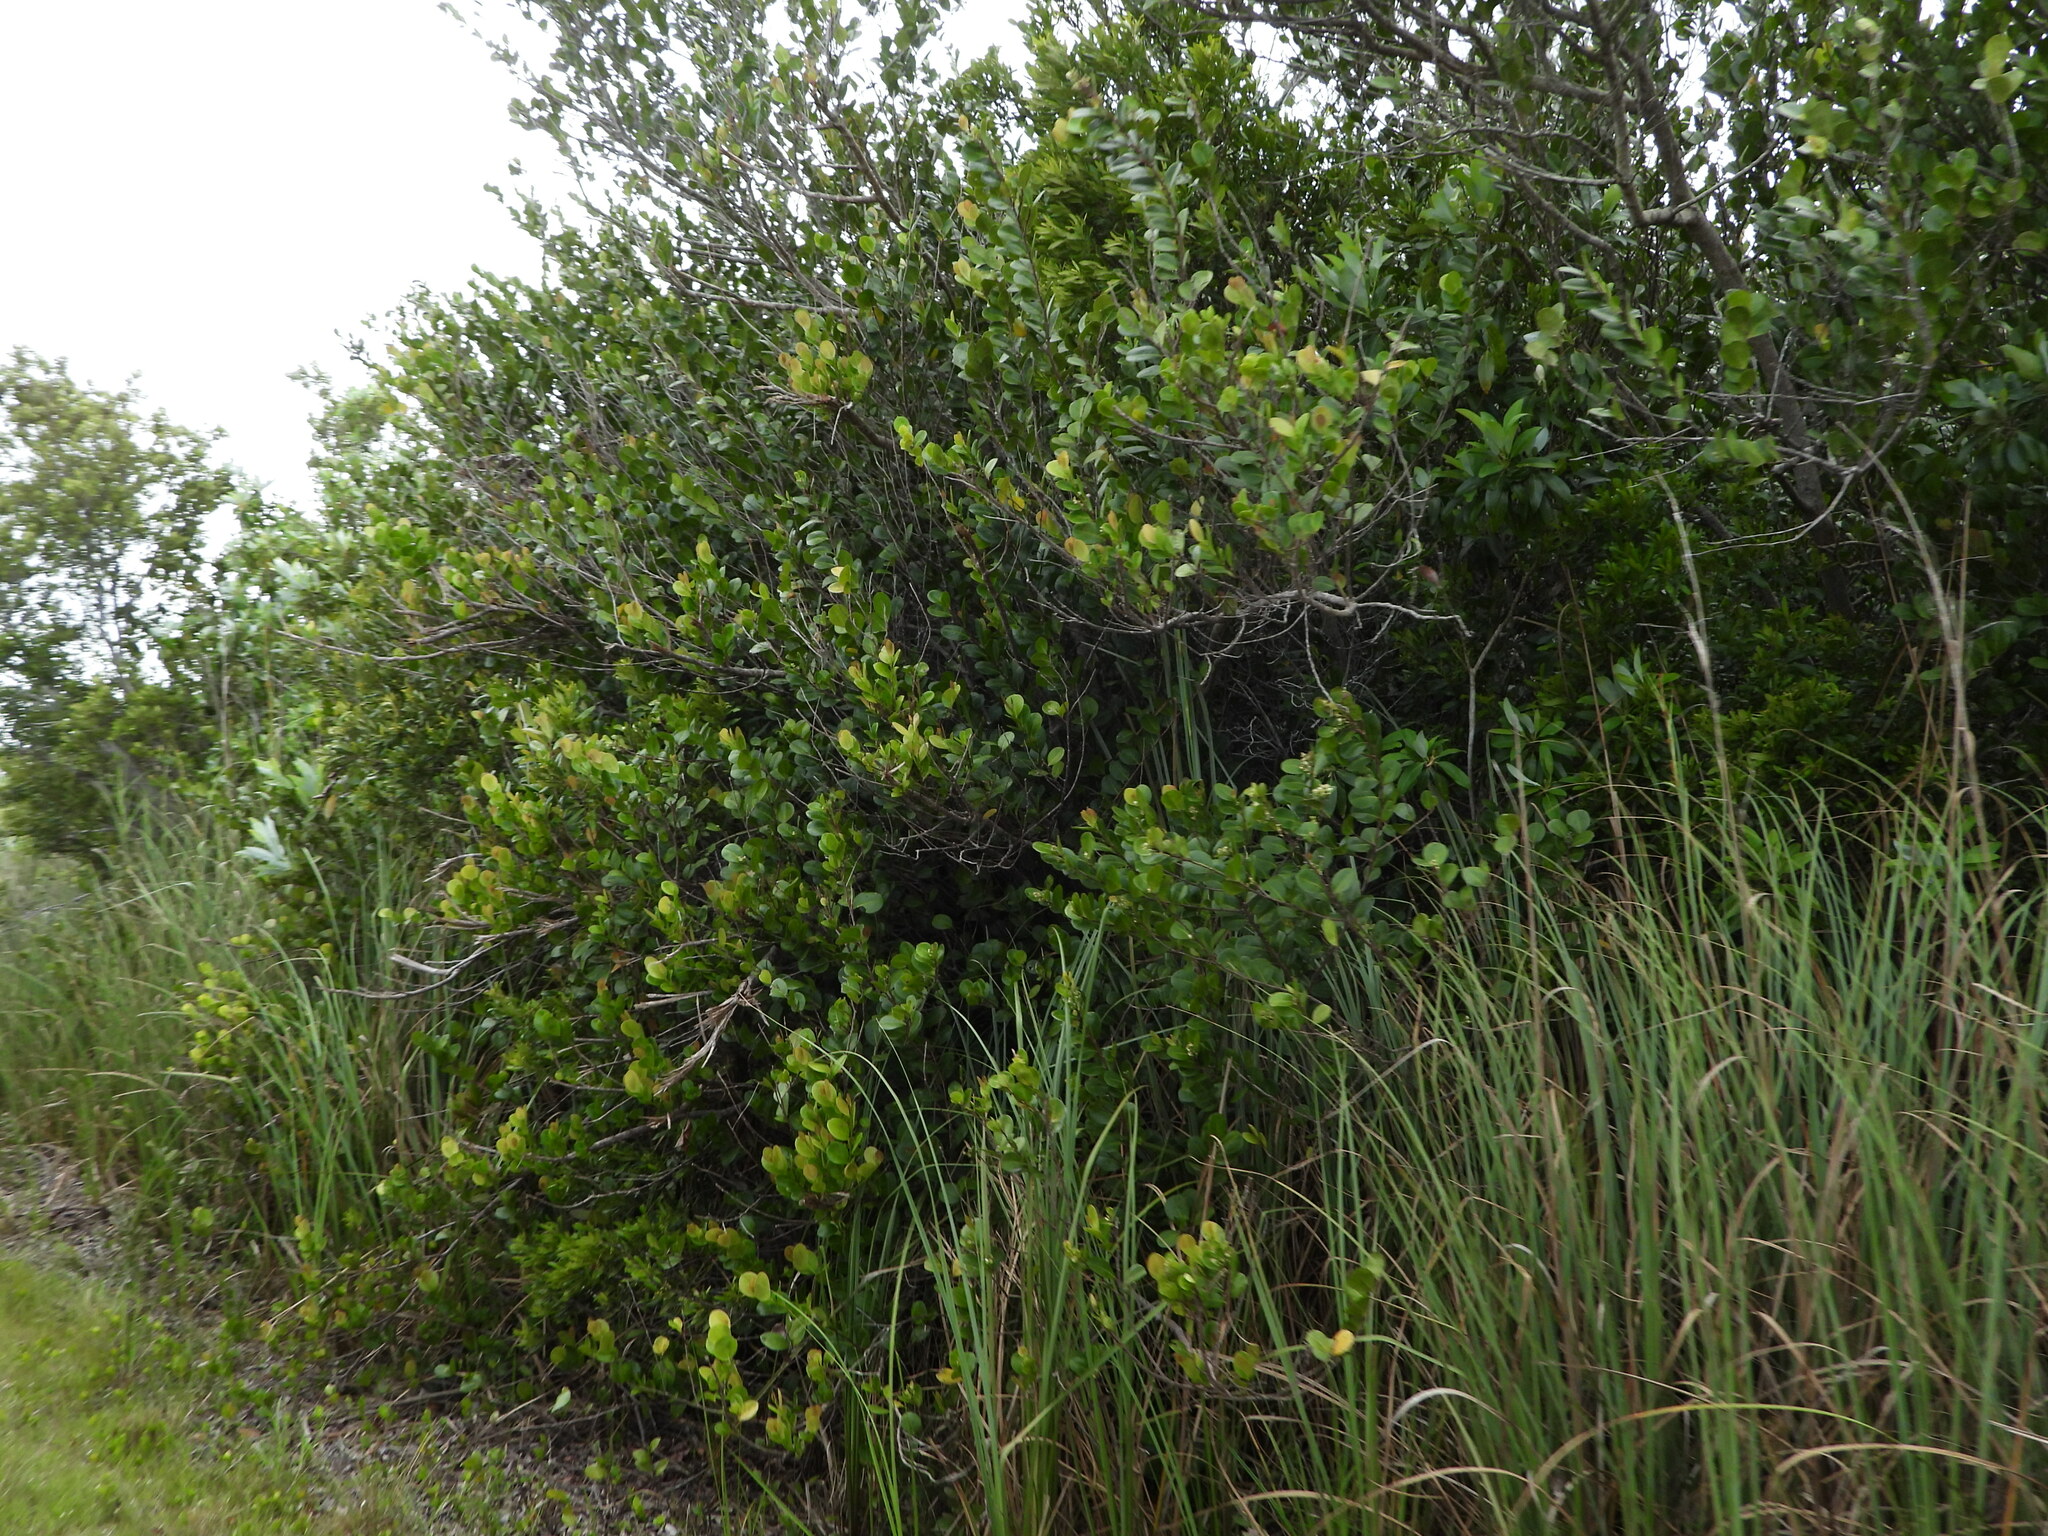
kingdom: Plantae
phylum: Tracheophyta
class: Magnoliopsida
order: Malpighiales
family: Chrysobalanaceae
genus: Chrysobalanus
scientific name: Chrysobalanus icaco
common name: Coco plum
